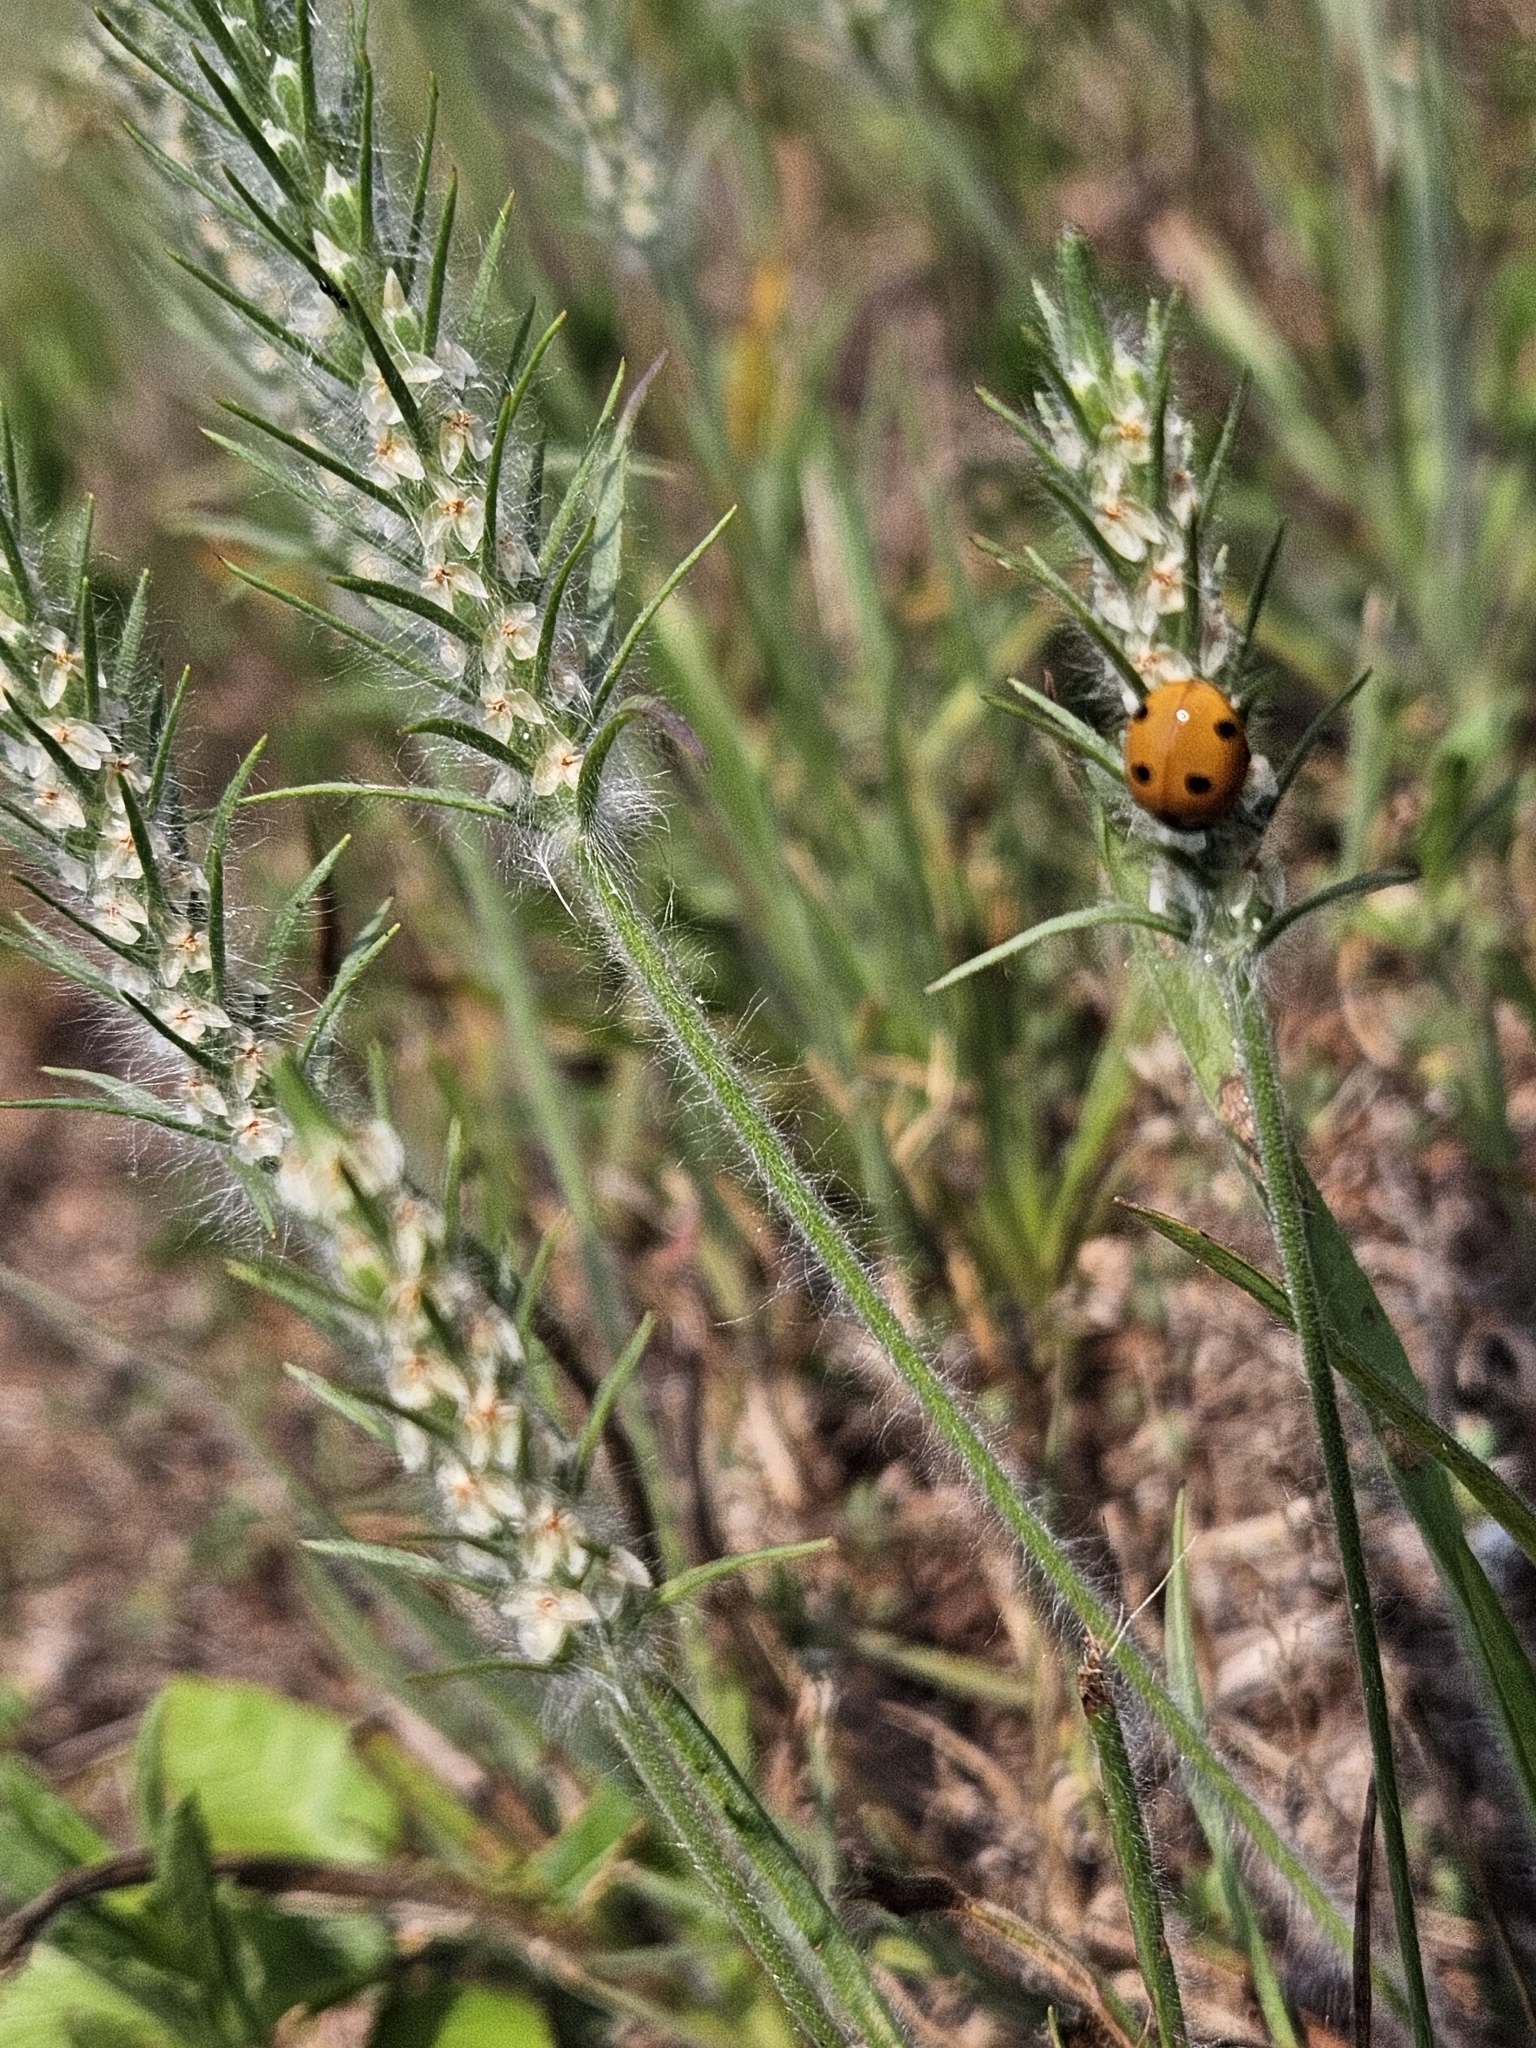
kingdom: Plantae
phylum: Tracheophyta
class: Magnoliopsida
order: Lamiales
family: Plantaginaceae
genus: Plantago
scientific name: Plantago aristata
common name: Bracted plantain
